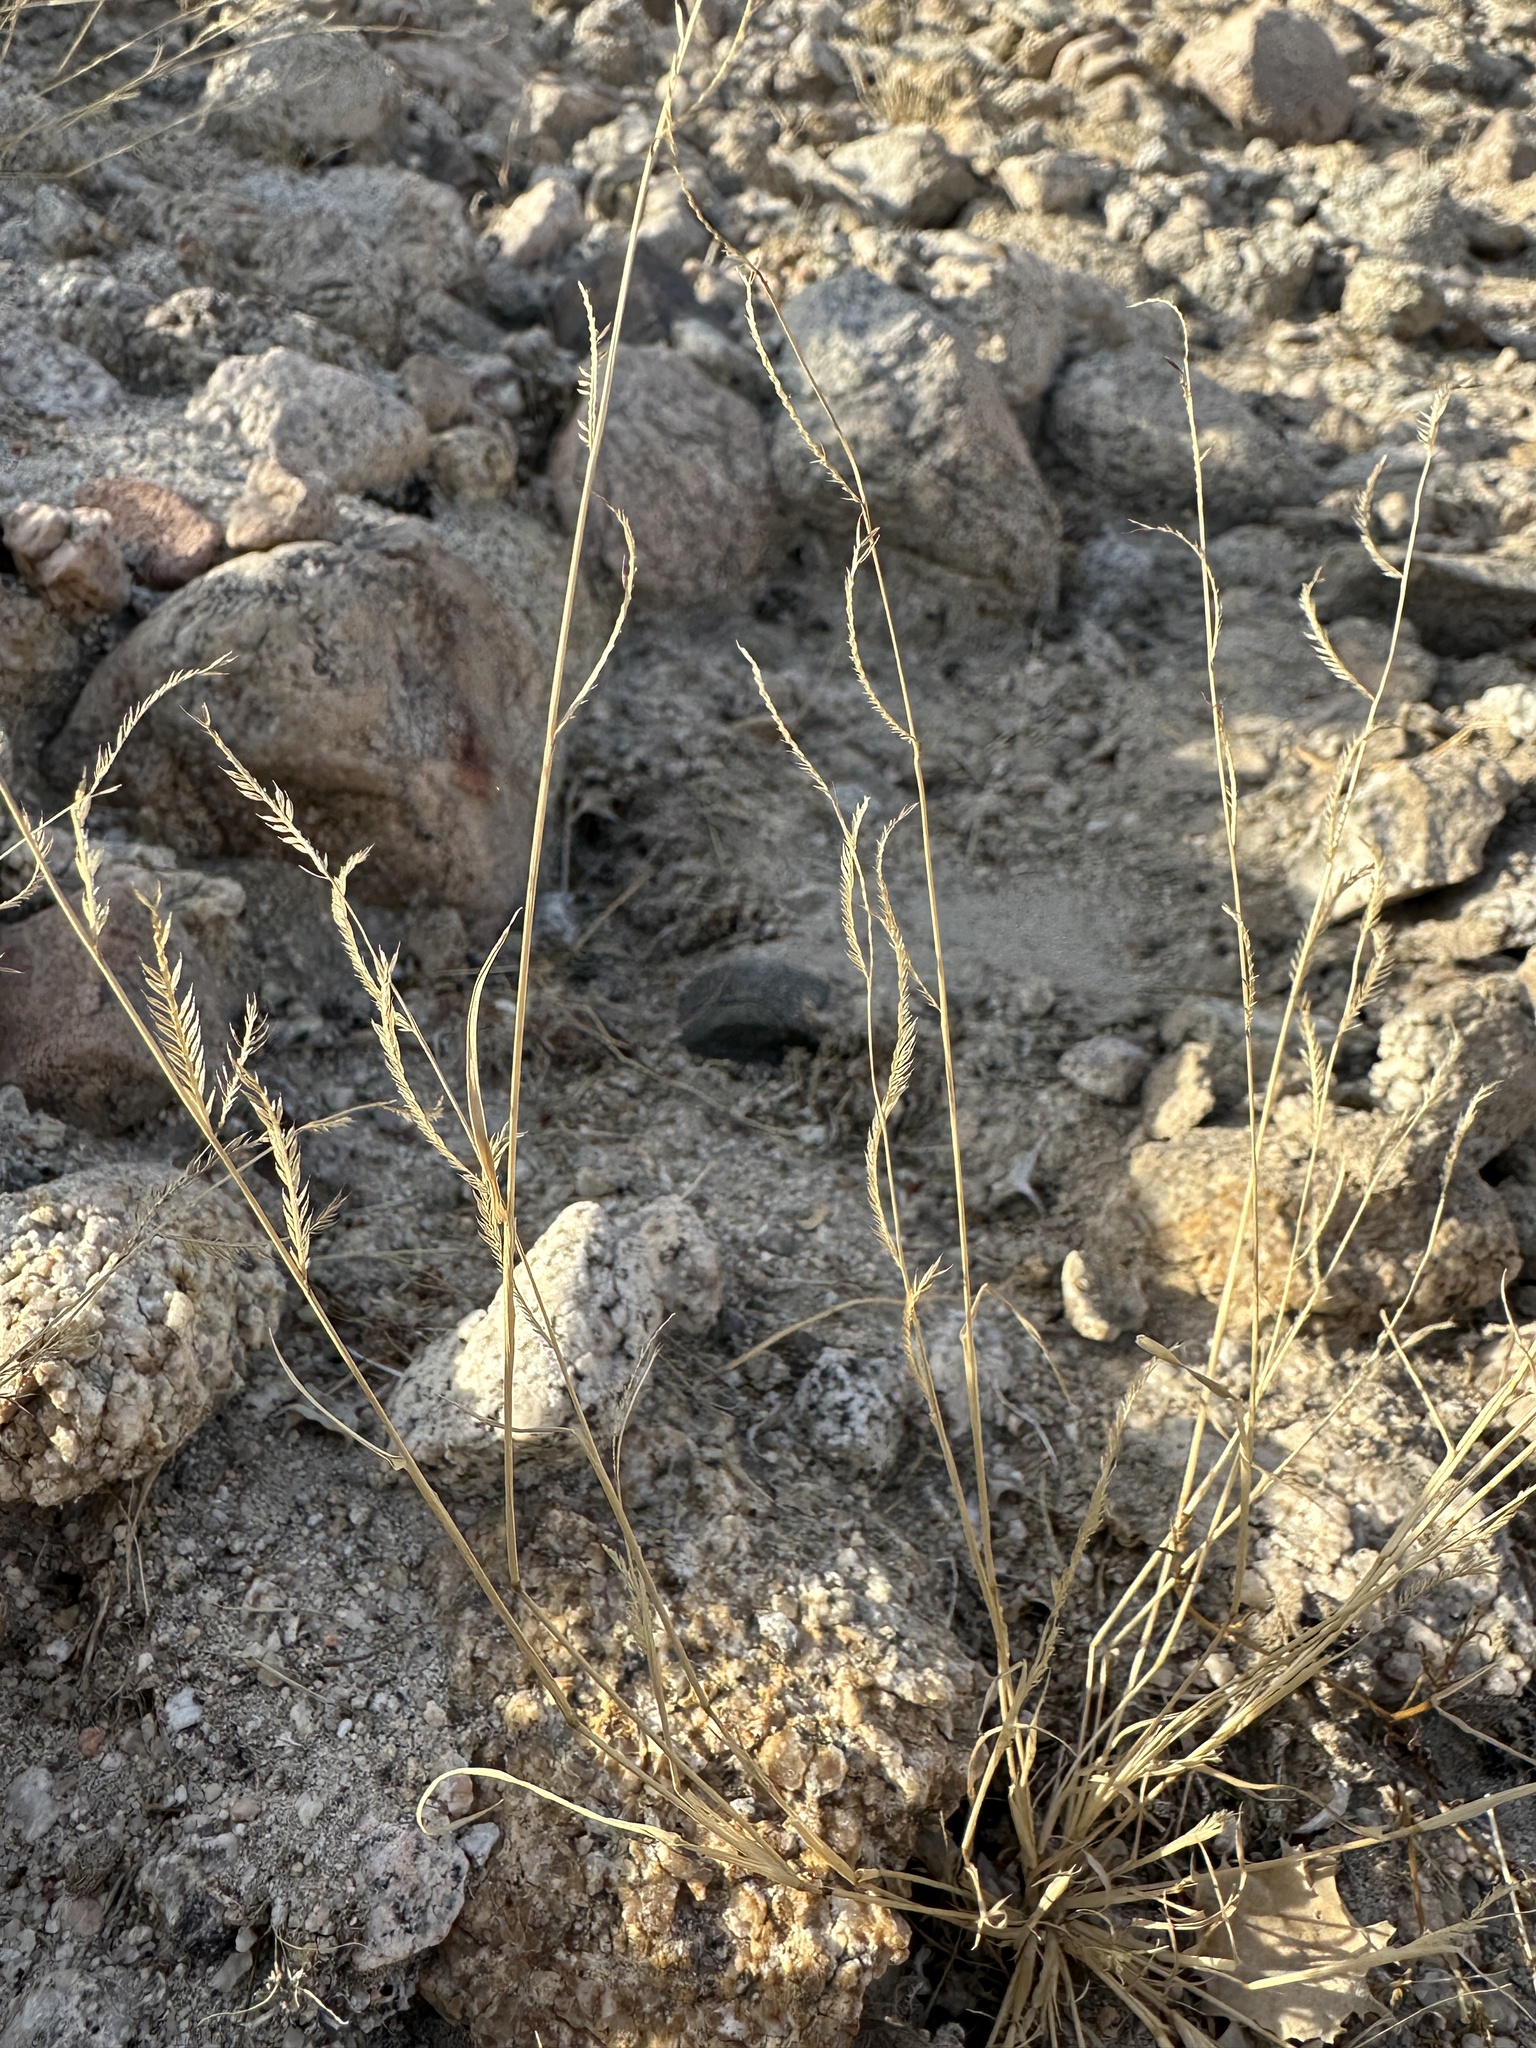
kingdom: Plantae
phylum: Tracheophyta
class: Liliopsida
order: Poales
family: Poaceae
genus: Bouteloua
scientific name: Bouteloua barbata
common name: Six-weeks grama
